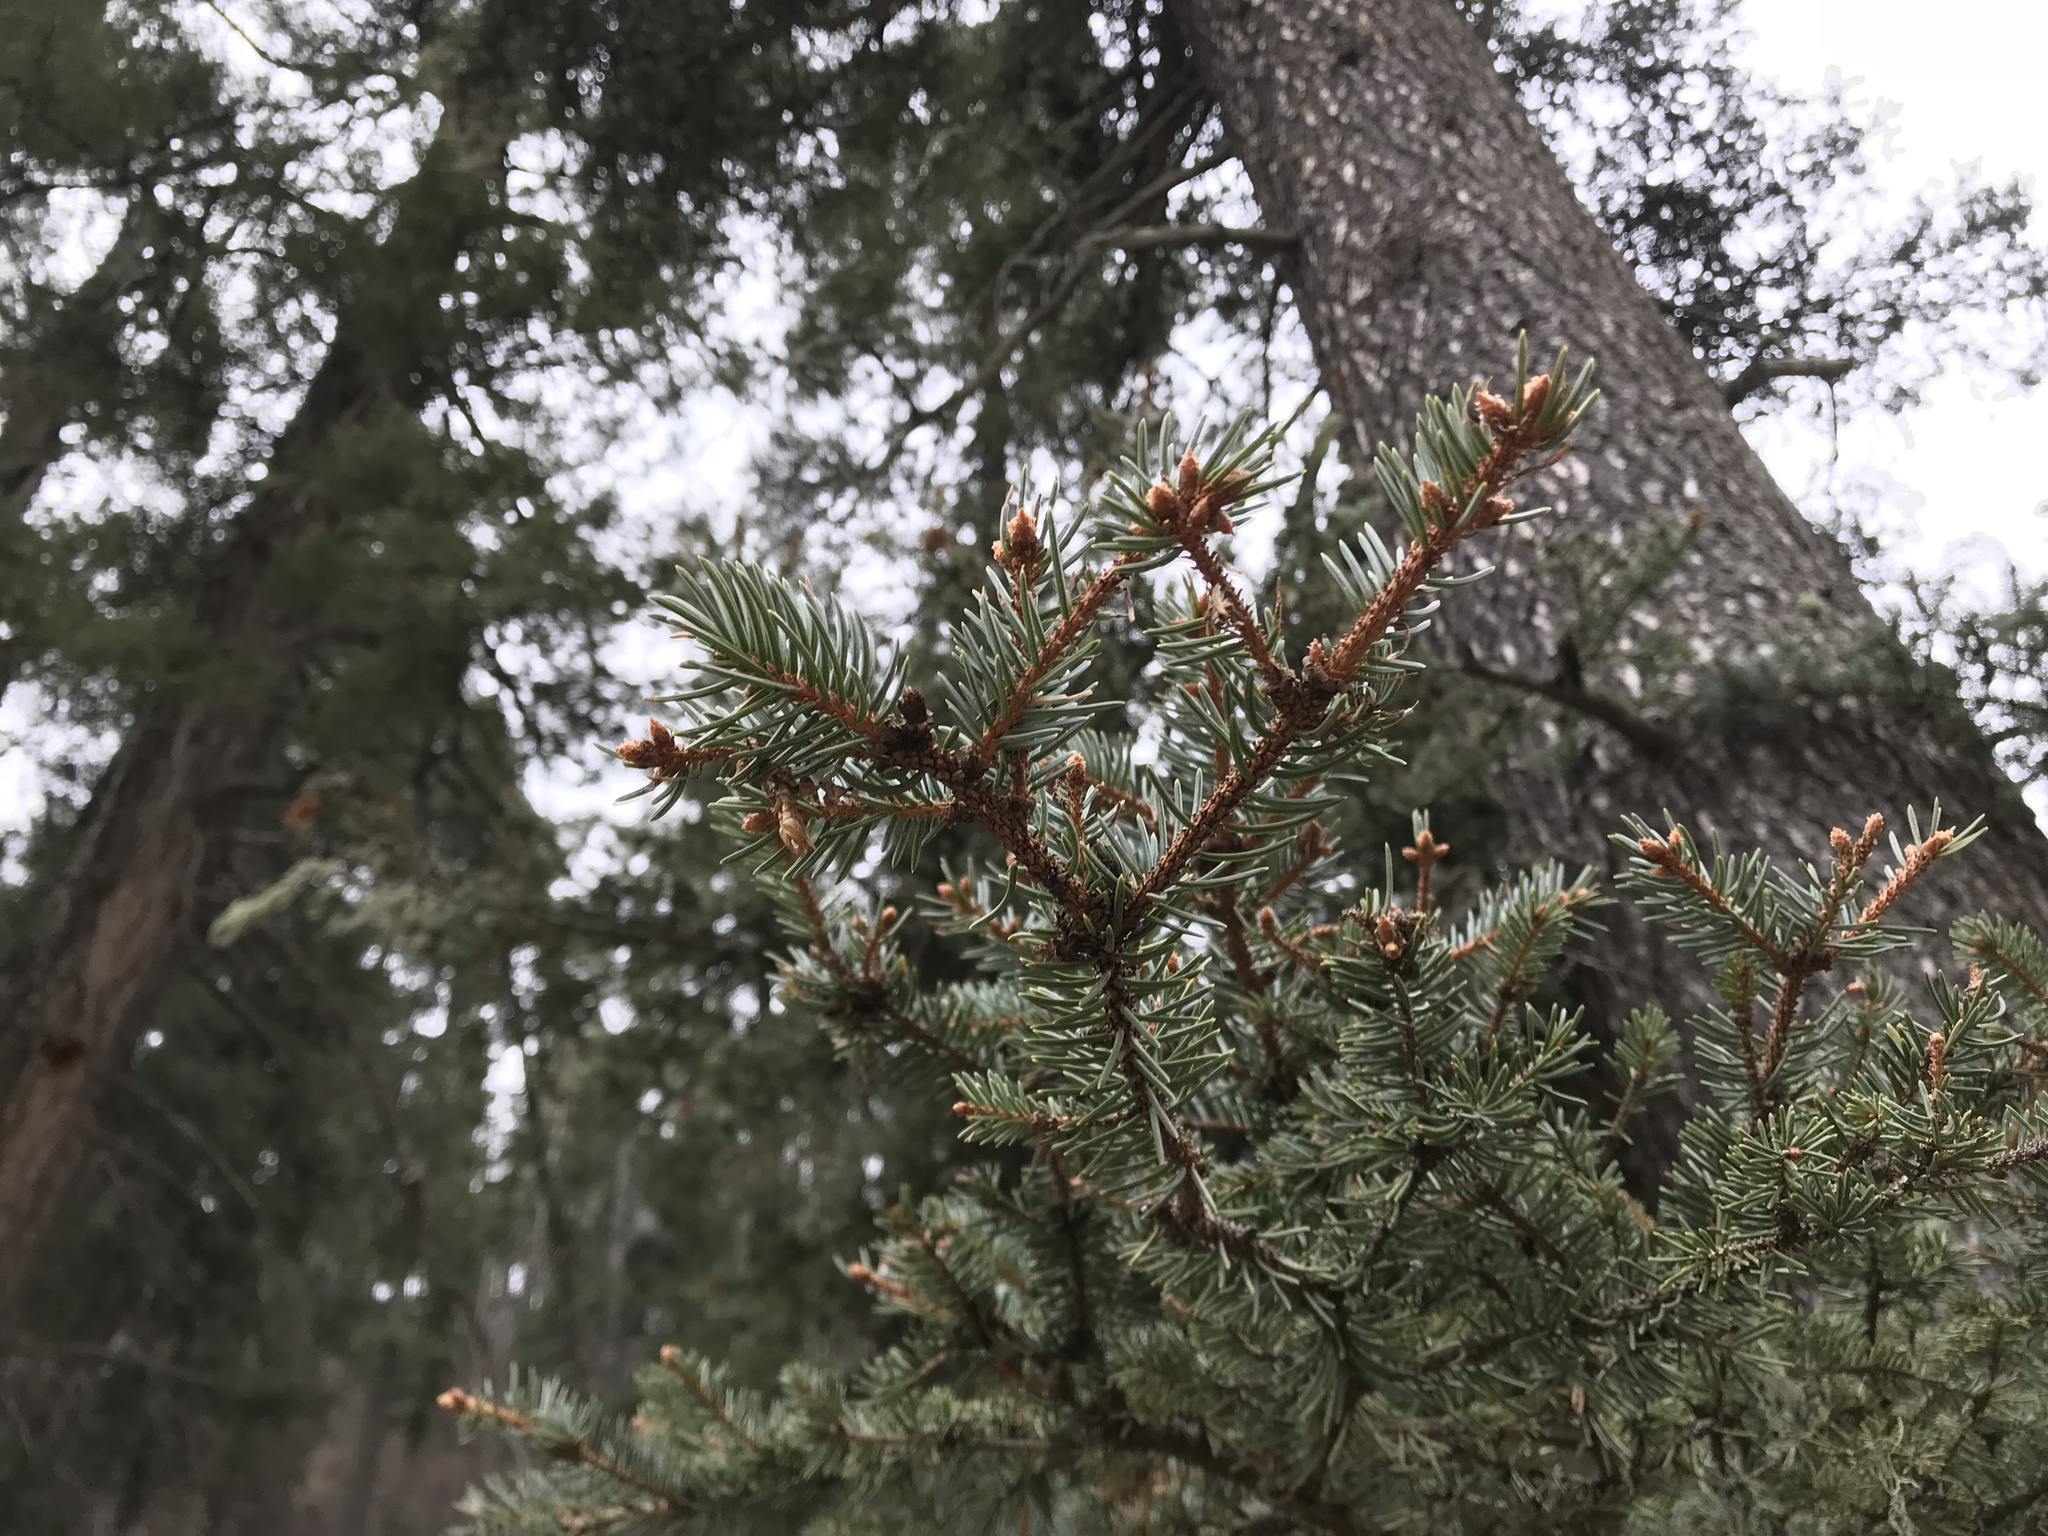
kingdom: Plantae
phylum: Tracheophyta
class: Pinopsida
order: Pinales
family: Pinaceae
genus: Picea
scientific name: Picea engelmannii
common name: Engelmann spruce
